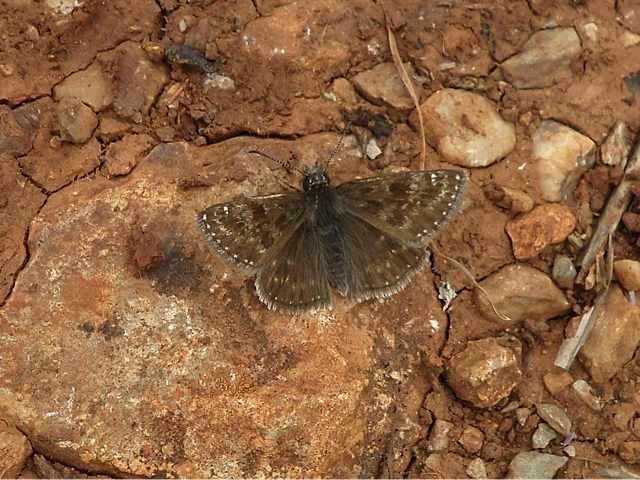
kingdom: Animalia
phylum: Arthropoda
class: Insecta
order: Lepidoptera
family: Hesperiidae
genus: Erynnis
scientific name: Erynnis tages
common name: Dingy skipper
